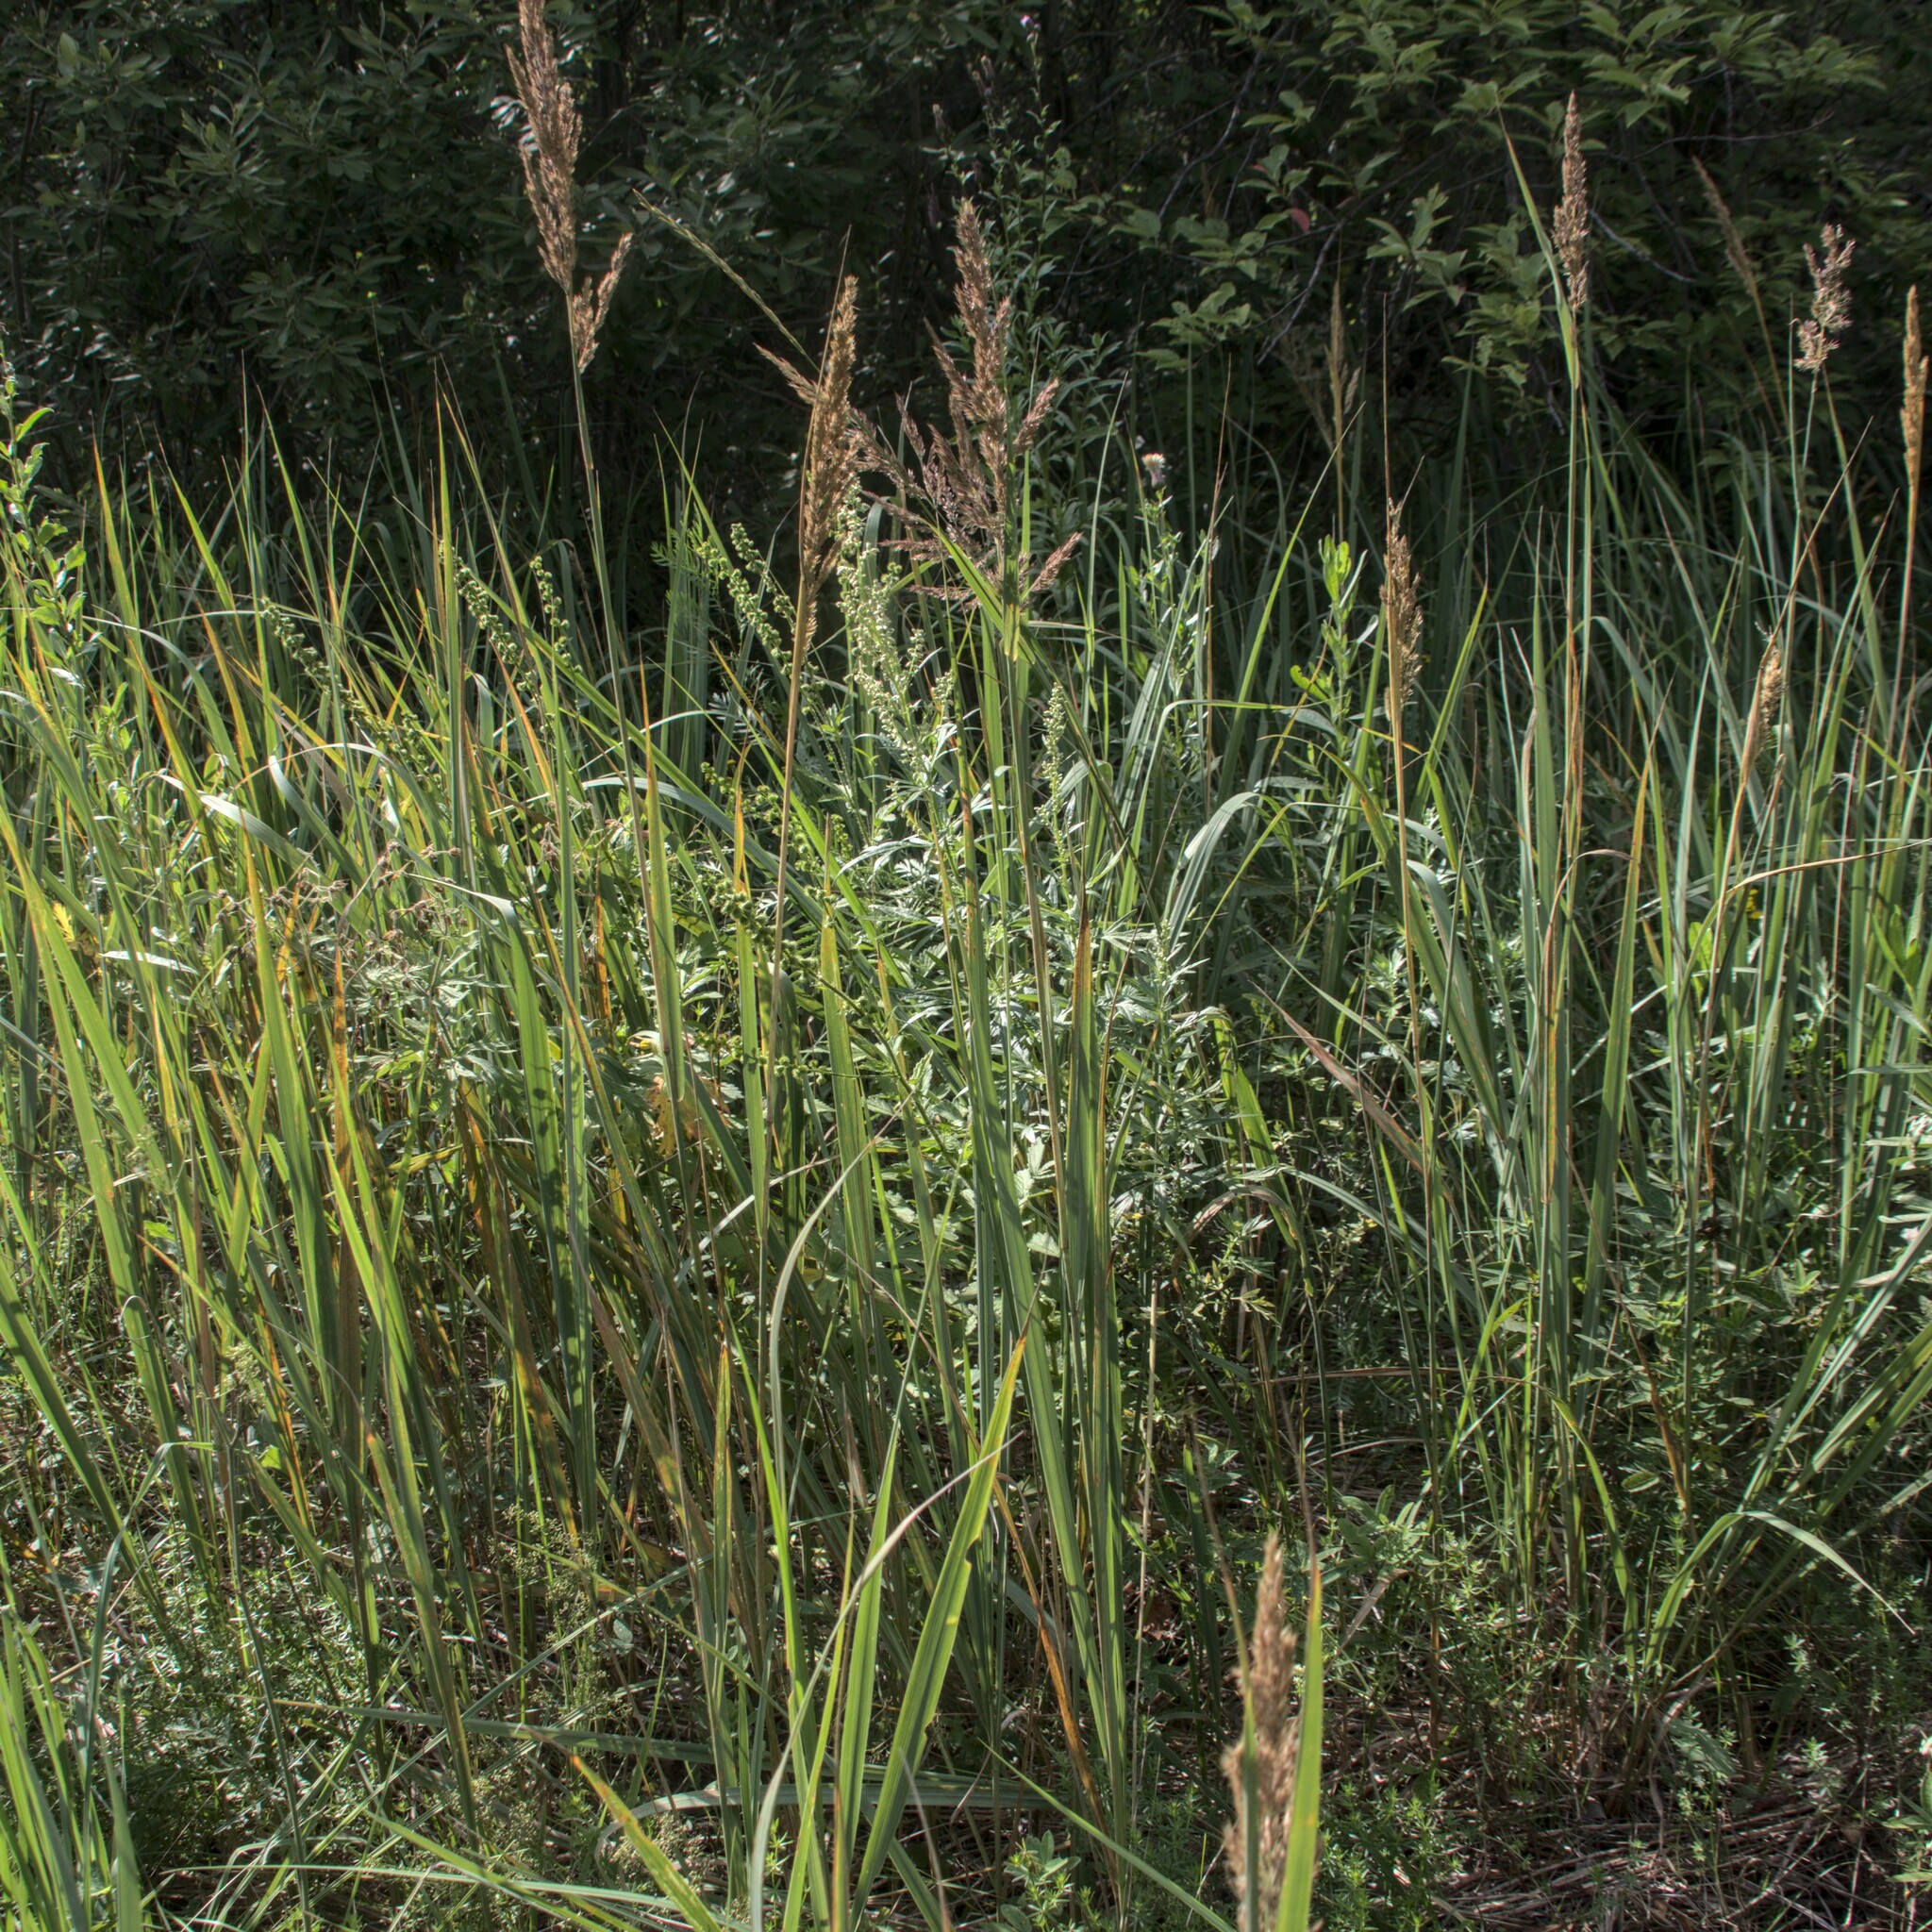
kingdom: Plantae
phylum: Tracheophyta
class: Liliopsida
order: Poales
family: Poaceae
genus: Calamagrostis
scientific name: Calamagrostis epigejos
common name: Wood small-reed
